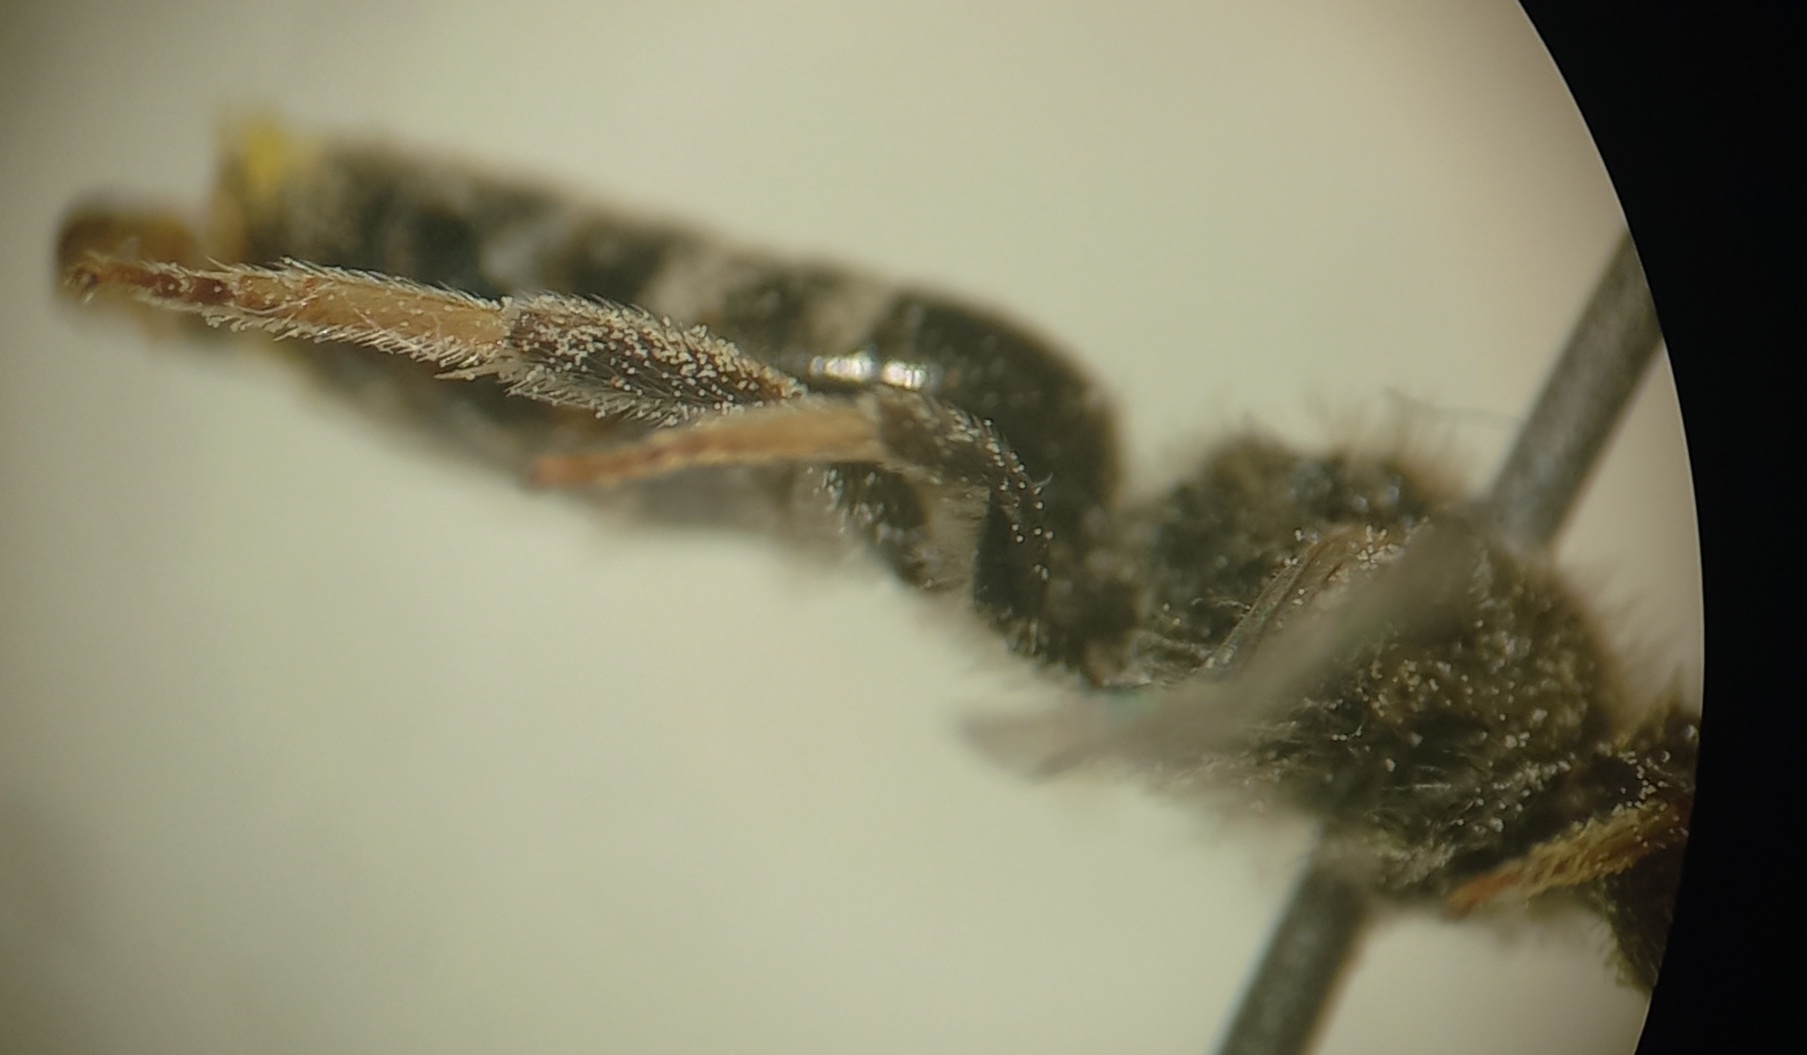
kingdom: Animalia
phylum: Arthropoda
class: Insecta
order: Hymenoptera
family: Halictidae
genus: Lasioglossum
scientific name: Lasioglossum pallens
